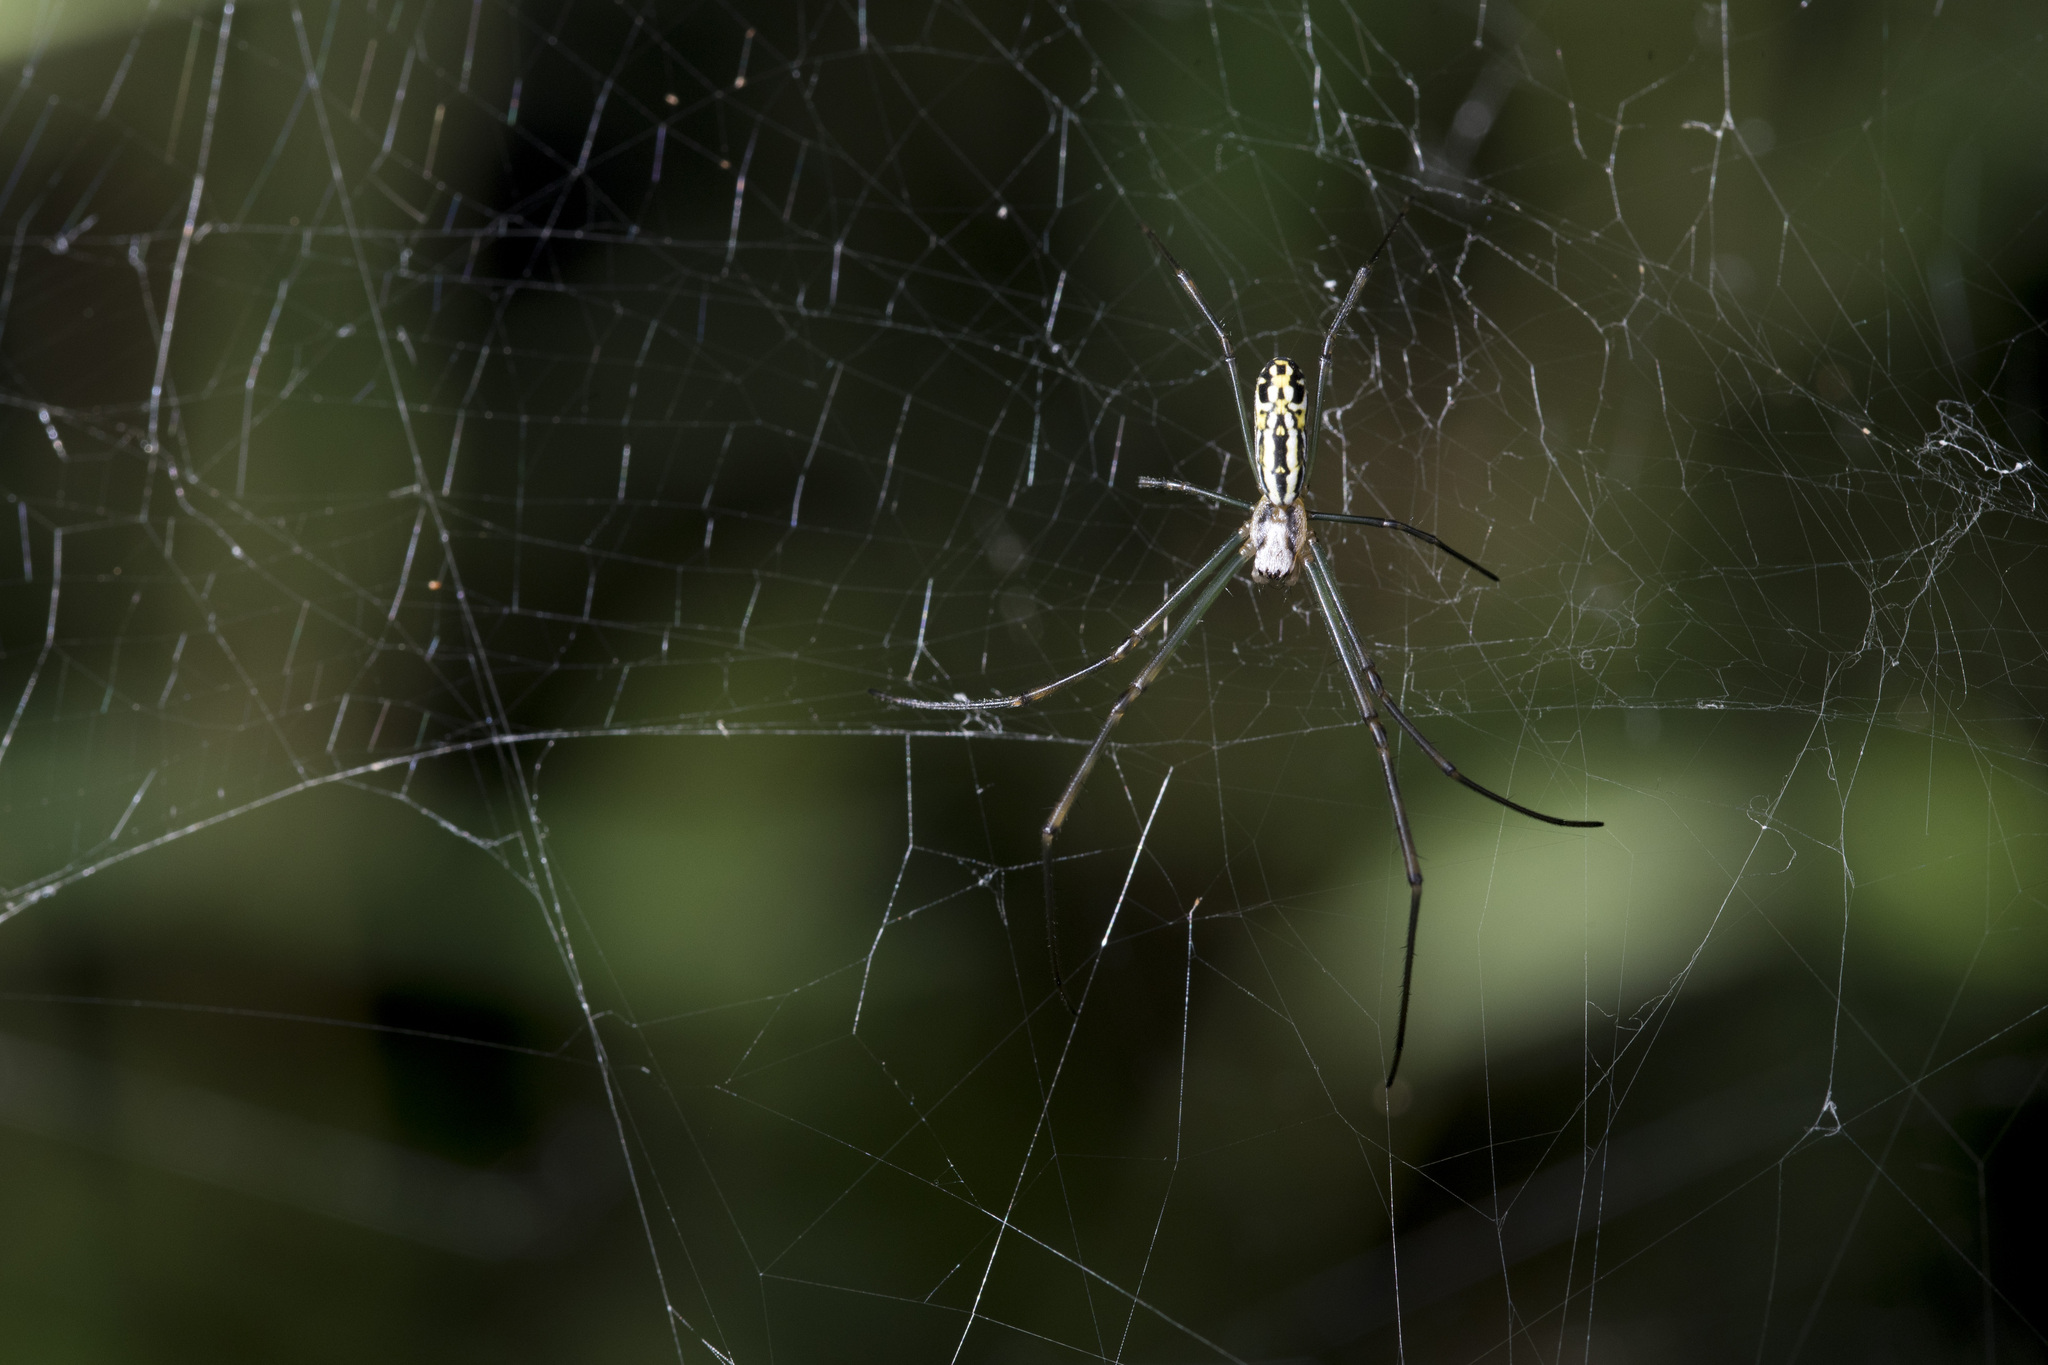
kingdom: Animalia
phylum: Arthropoda
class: Arachnida
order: Araneae
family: Araneidae
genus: Trichonephila
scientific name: Trichonephila clavata
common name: Jorō spider
